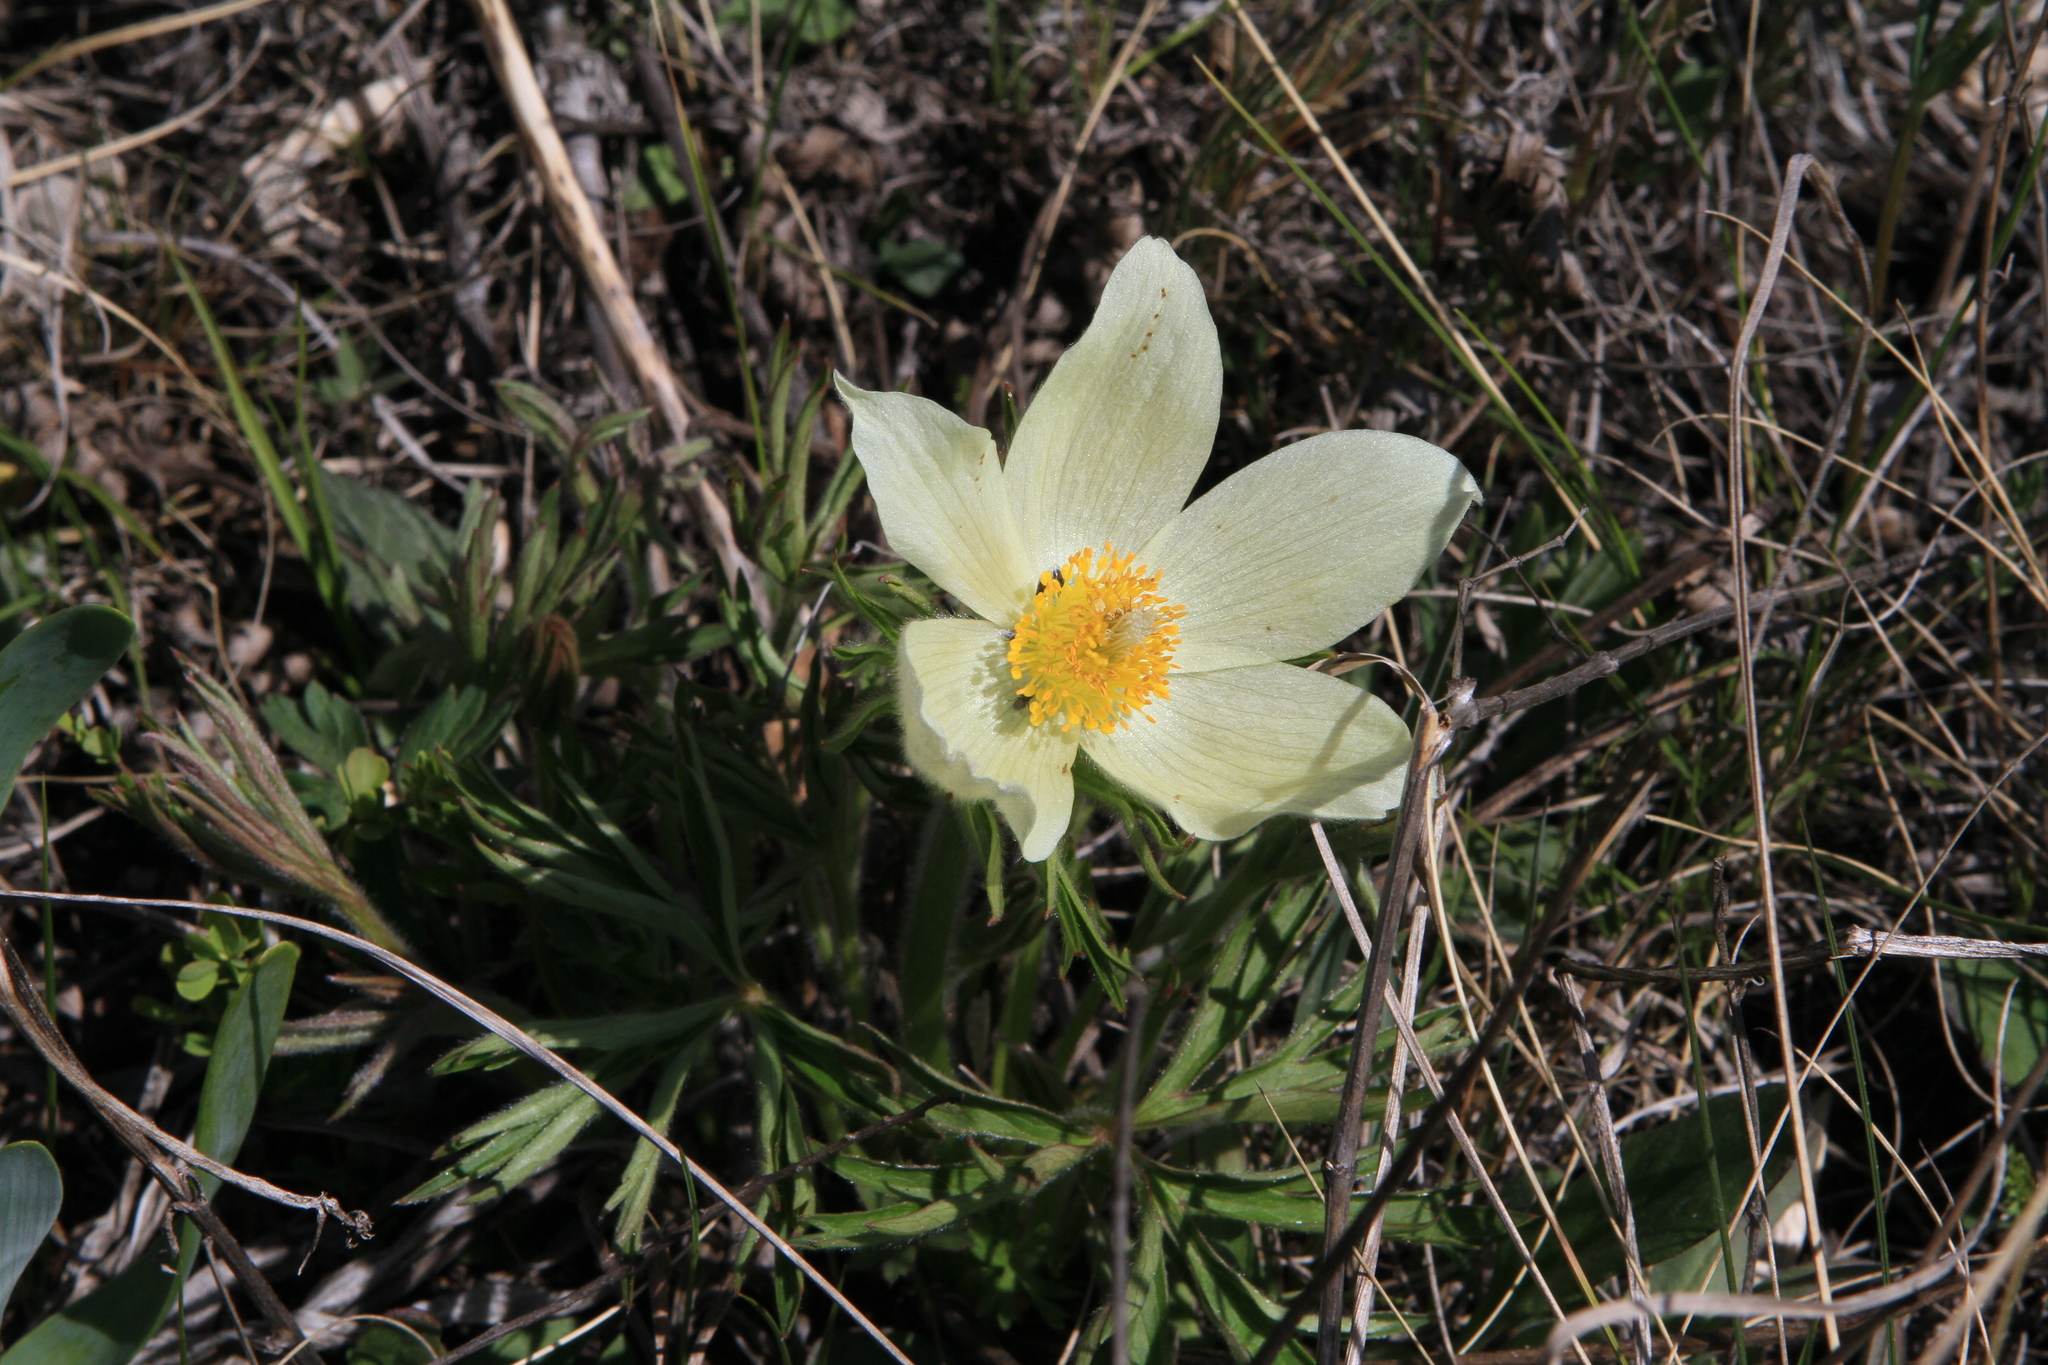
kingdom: Plantae
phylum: Tracheophyta
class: Magnoliopsida
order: Ranunculales
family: Ranunculaceae
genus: Pulsatilla
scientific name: Pulsatilla patens
